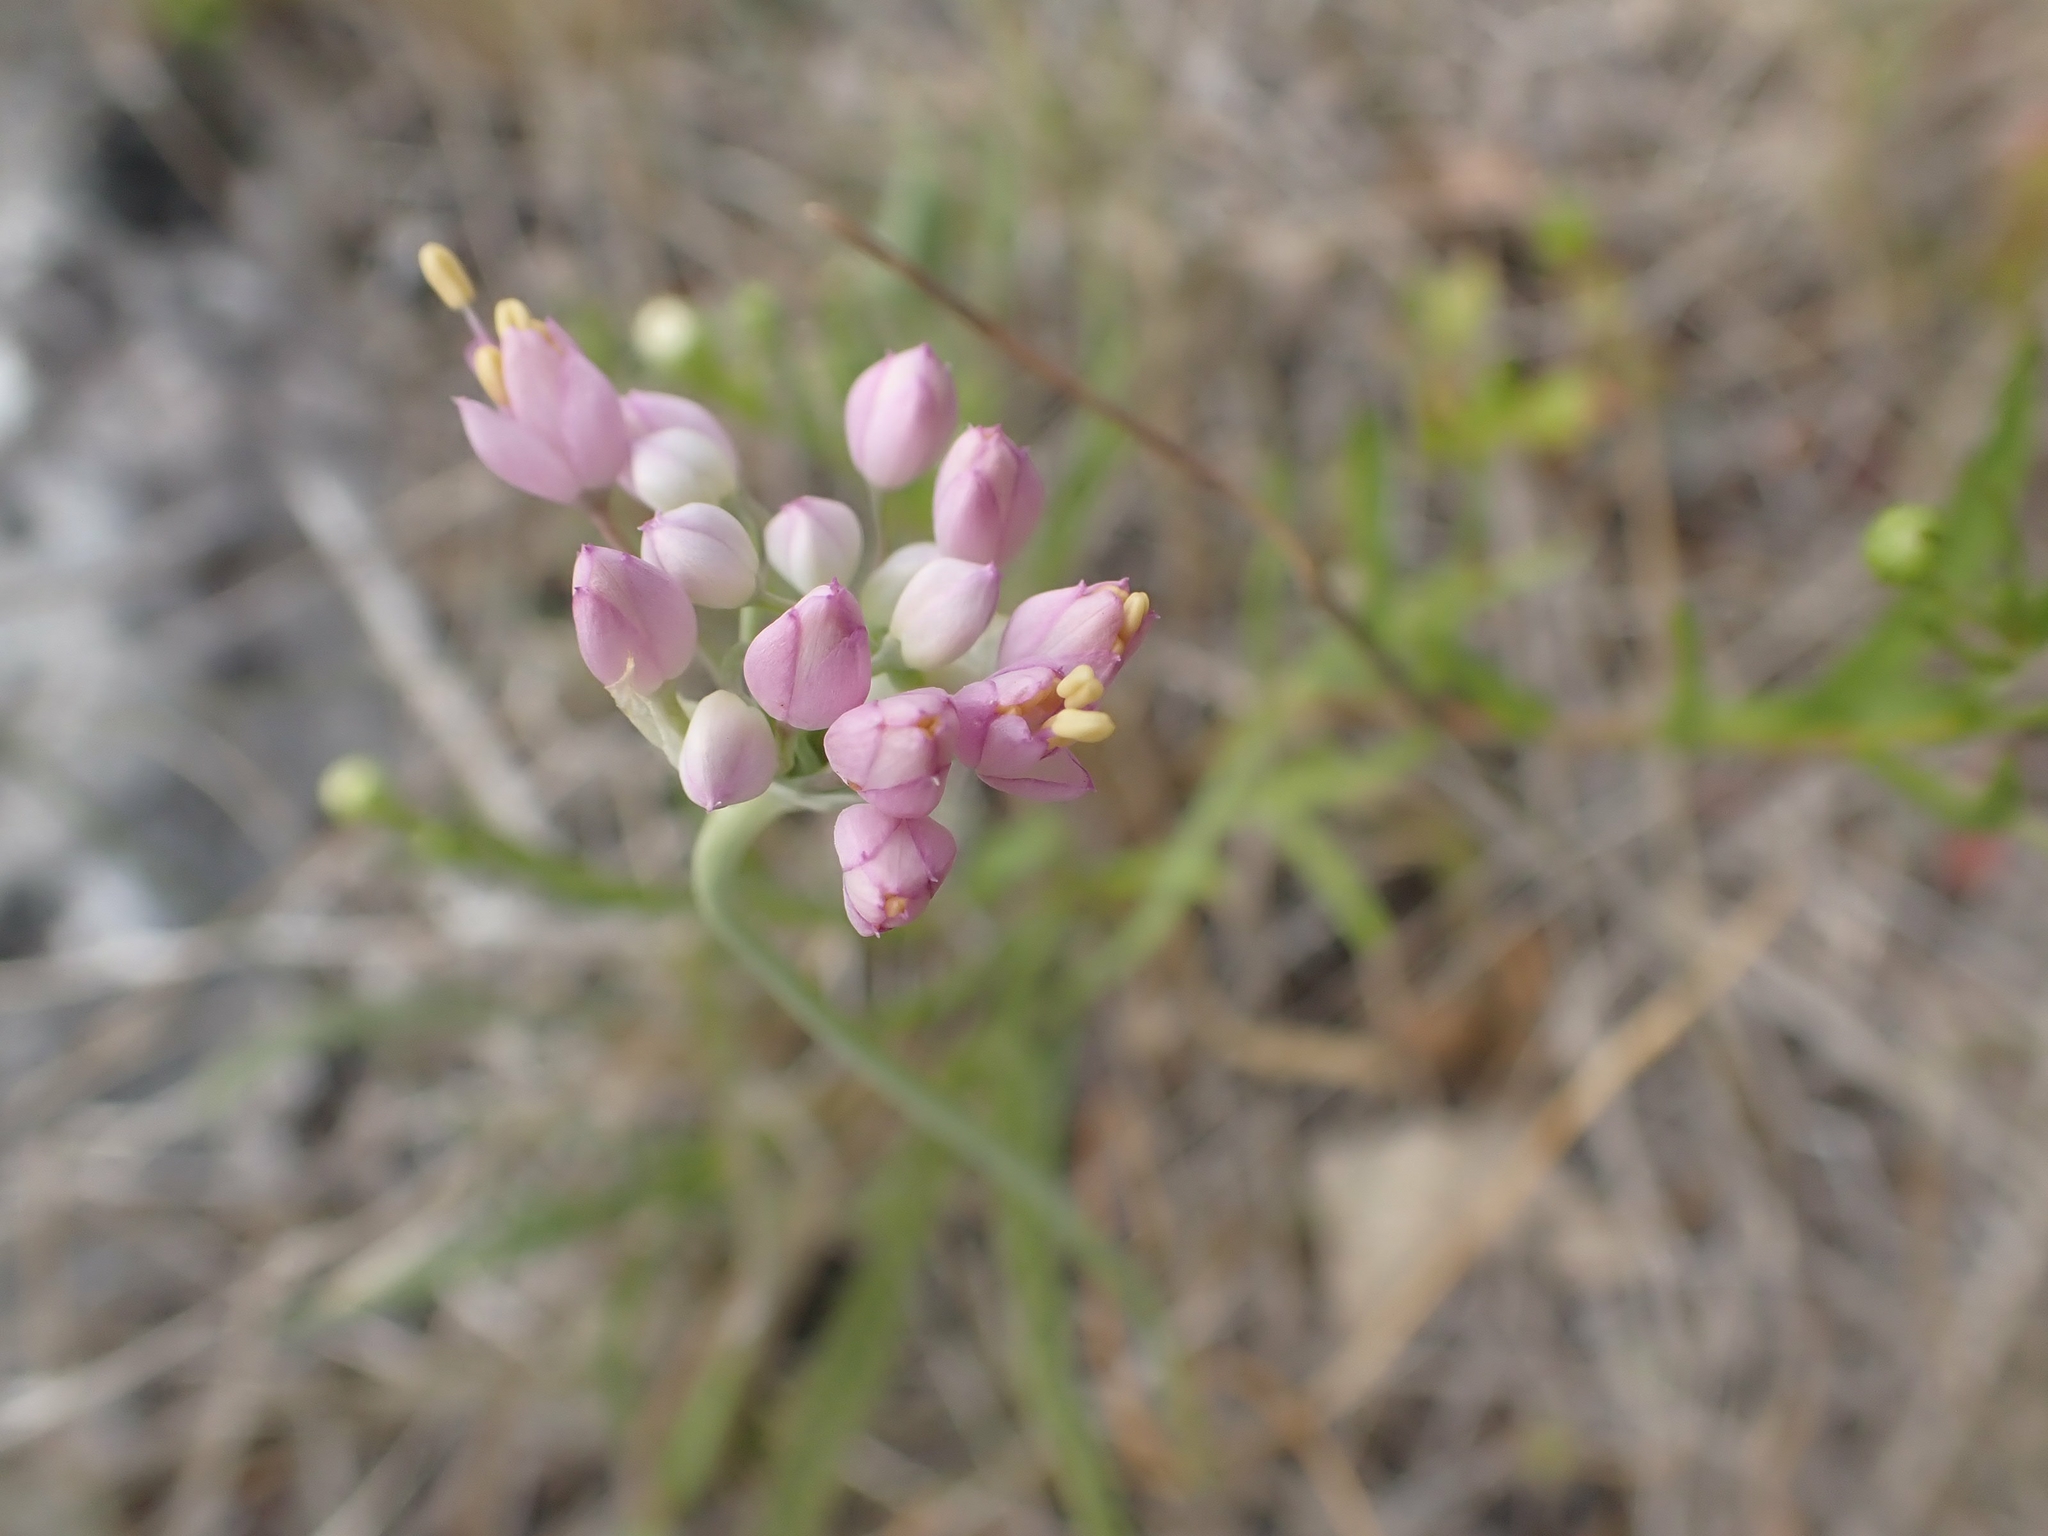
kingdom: Plantae
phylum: Tracheophyta
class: Liliopsida
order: Asparagales
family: Amaryllidaceae
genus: Allium
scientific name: Allium stellatum
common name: Autumn onion
